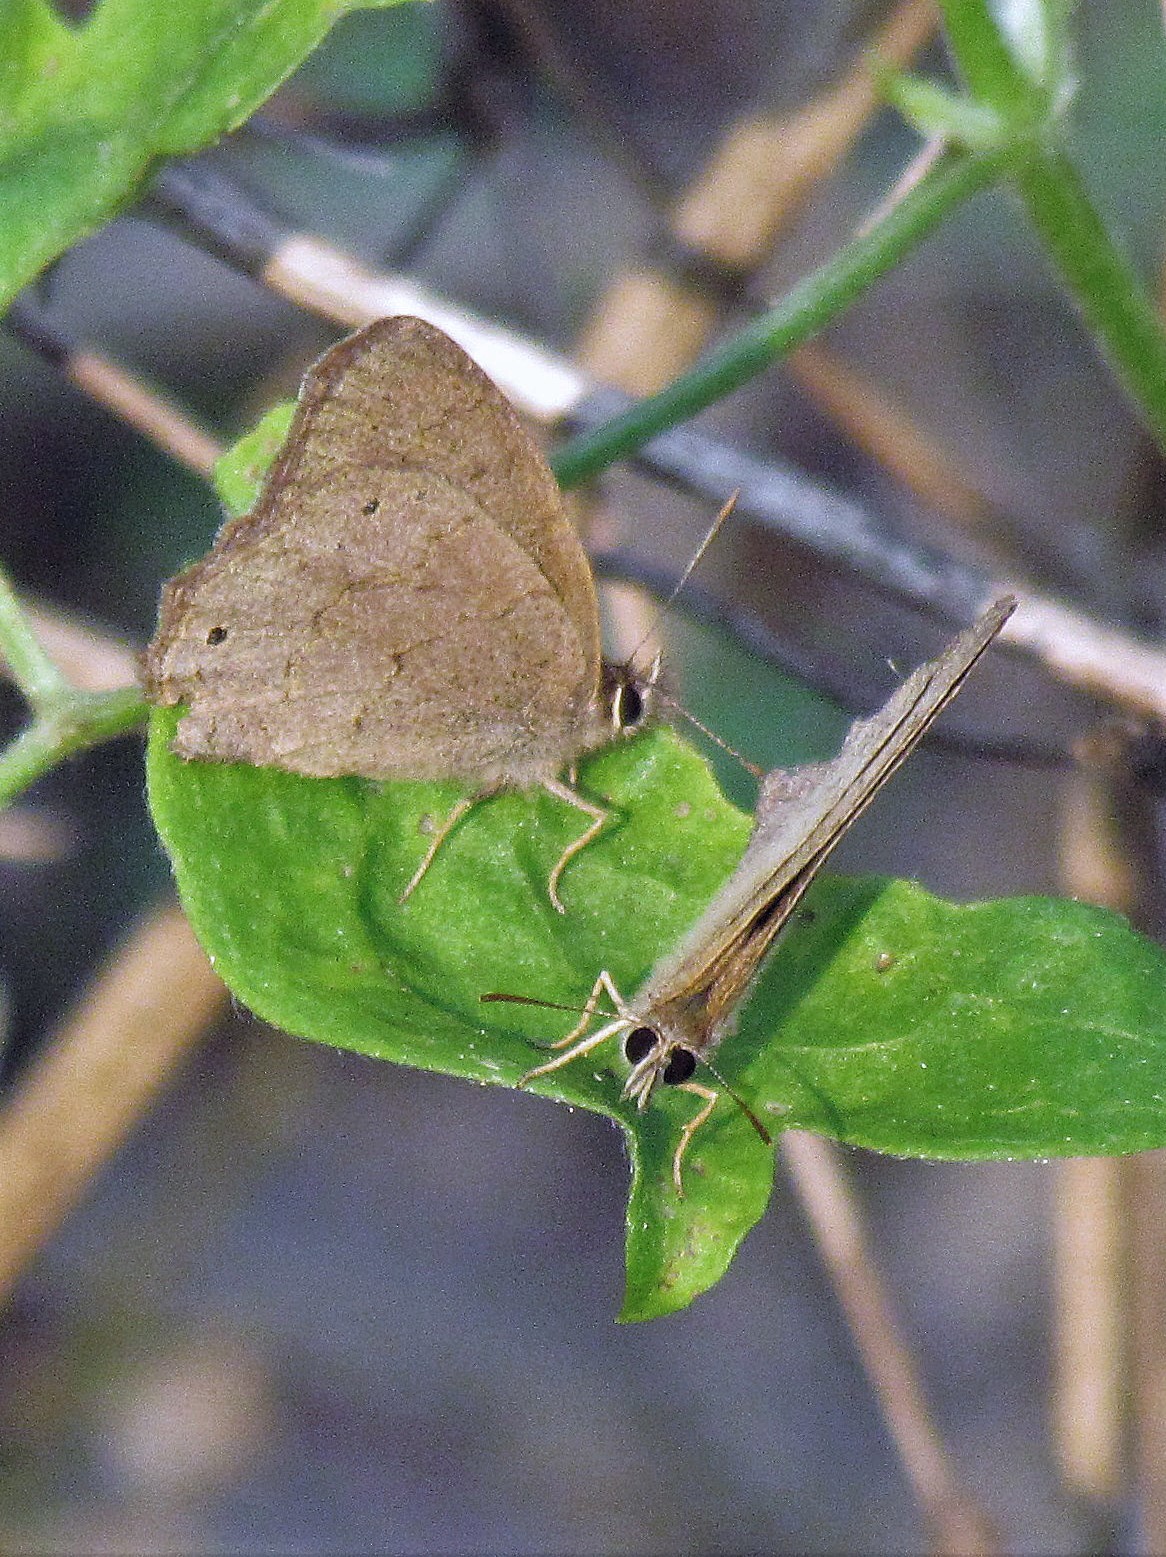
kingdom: Animalia
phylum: Arthropoda
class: Insecta
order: Lepidoptera
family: Nymphalidae
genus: Euptychia
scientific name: Euptychia
